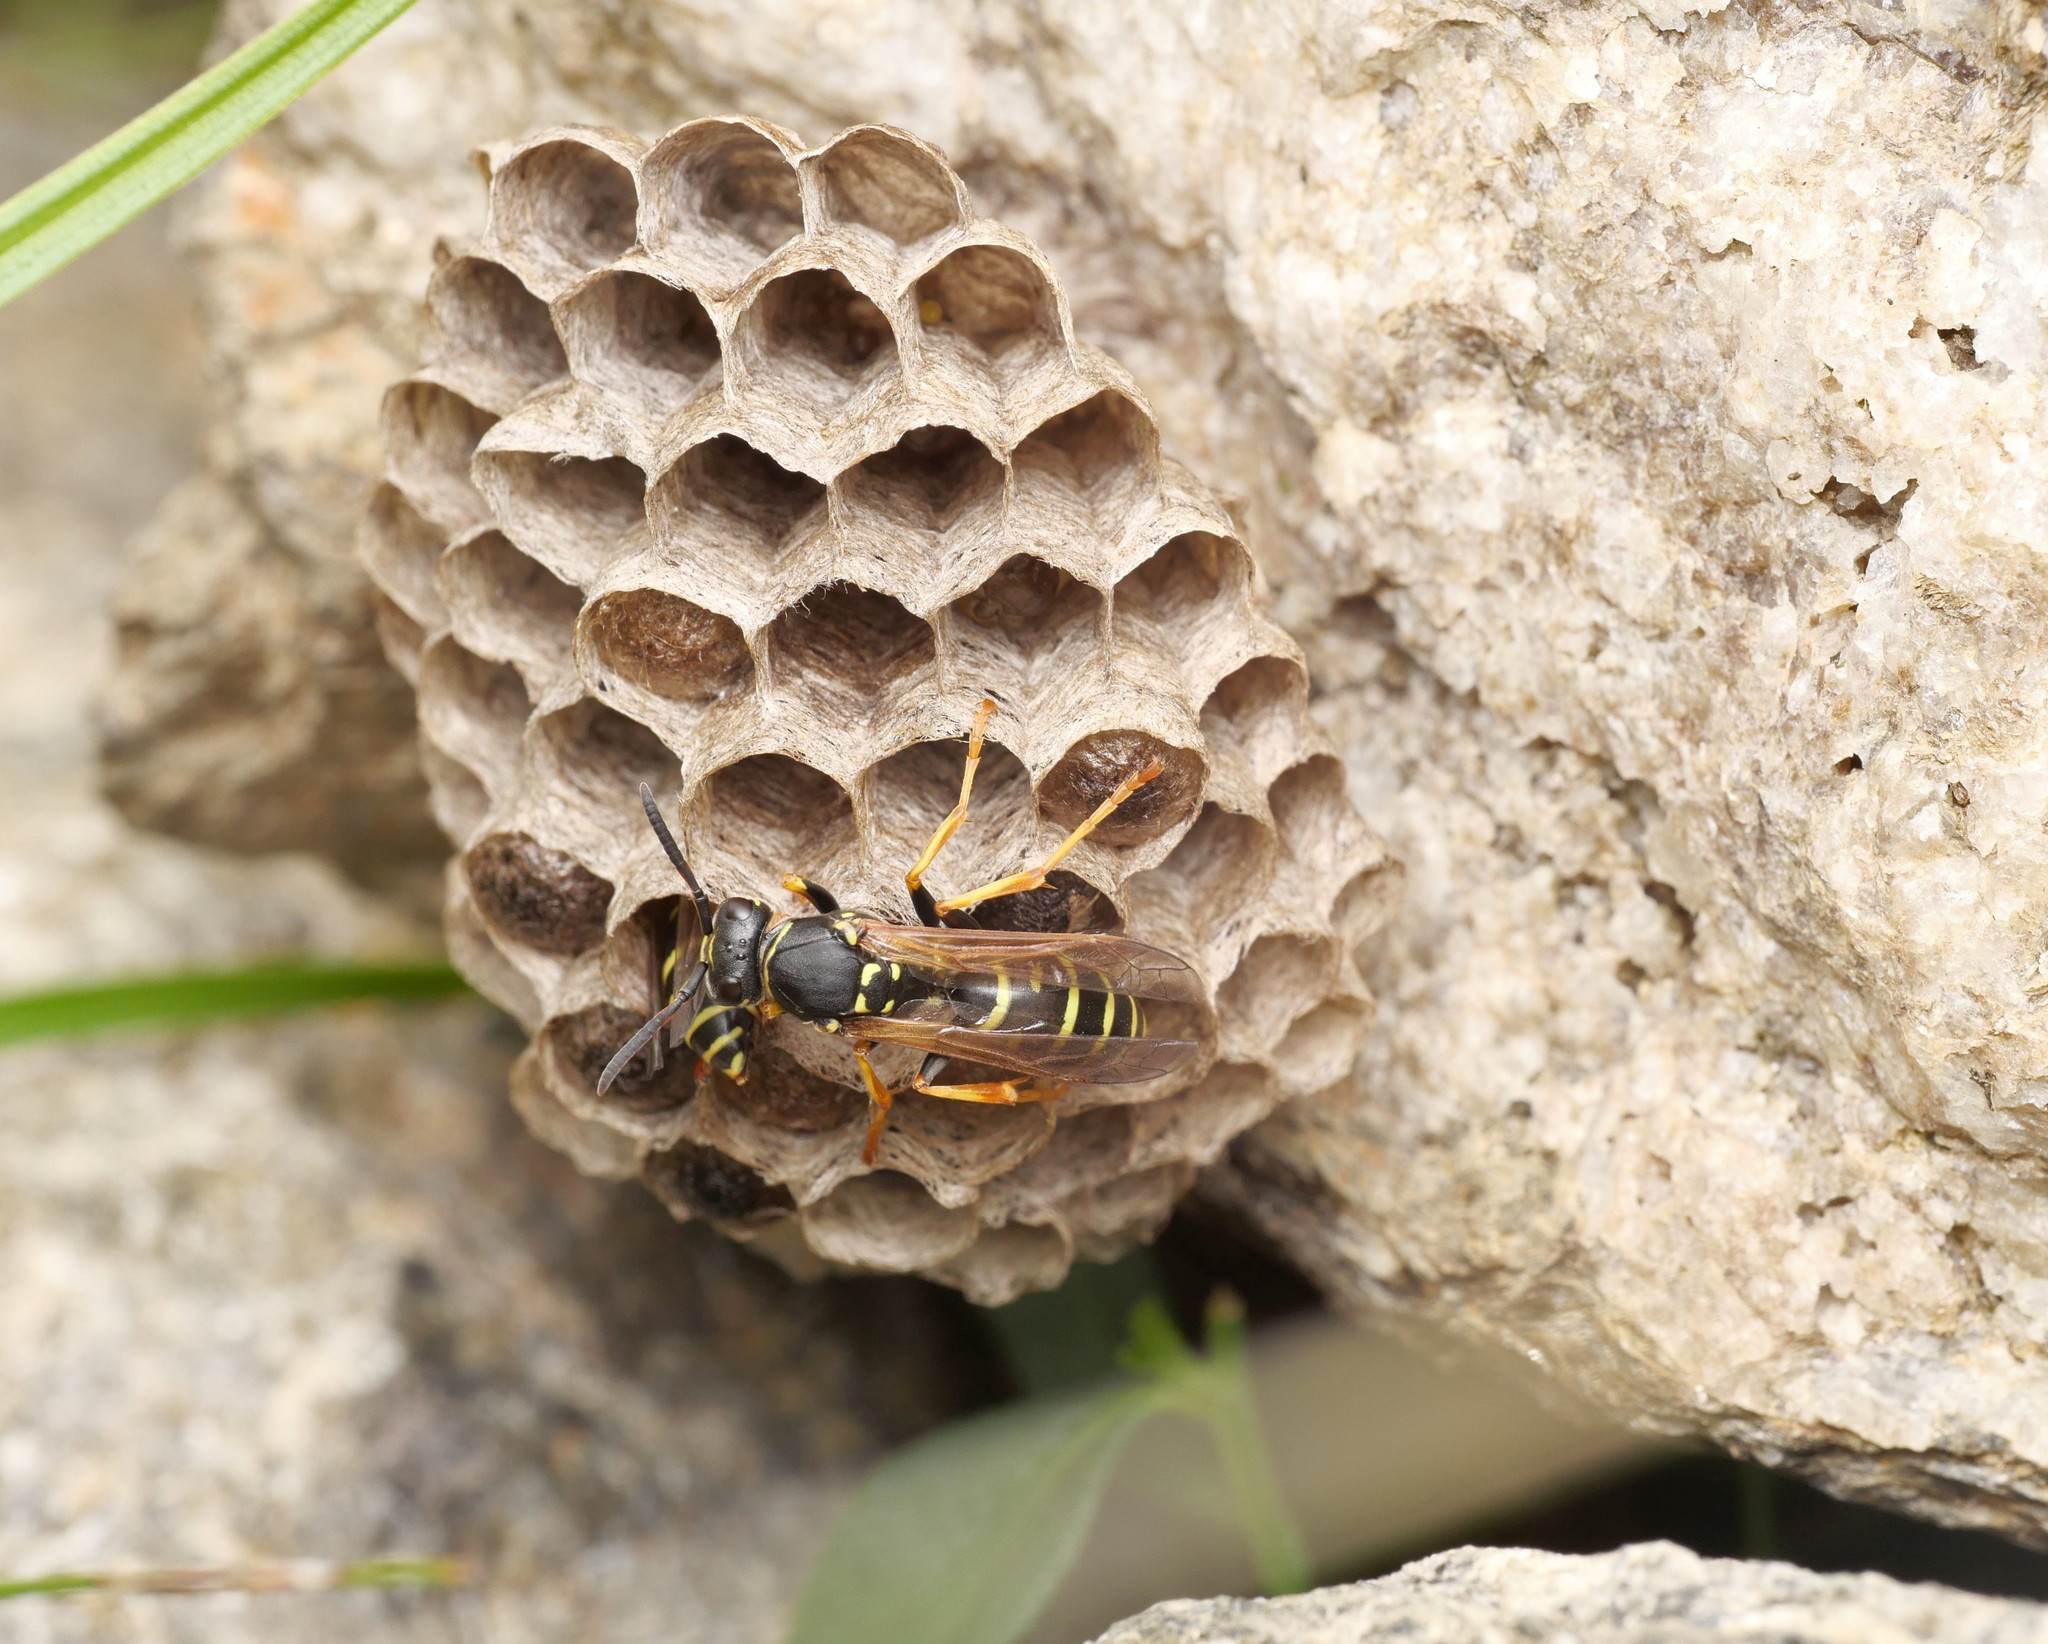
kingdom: Animalia
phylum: Arthropoda
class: Insecta
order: Hymenoptera
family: Eumenidae
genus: Polistes
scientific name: Polistes biglumis
